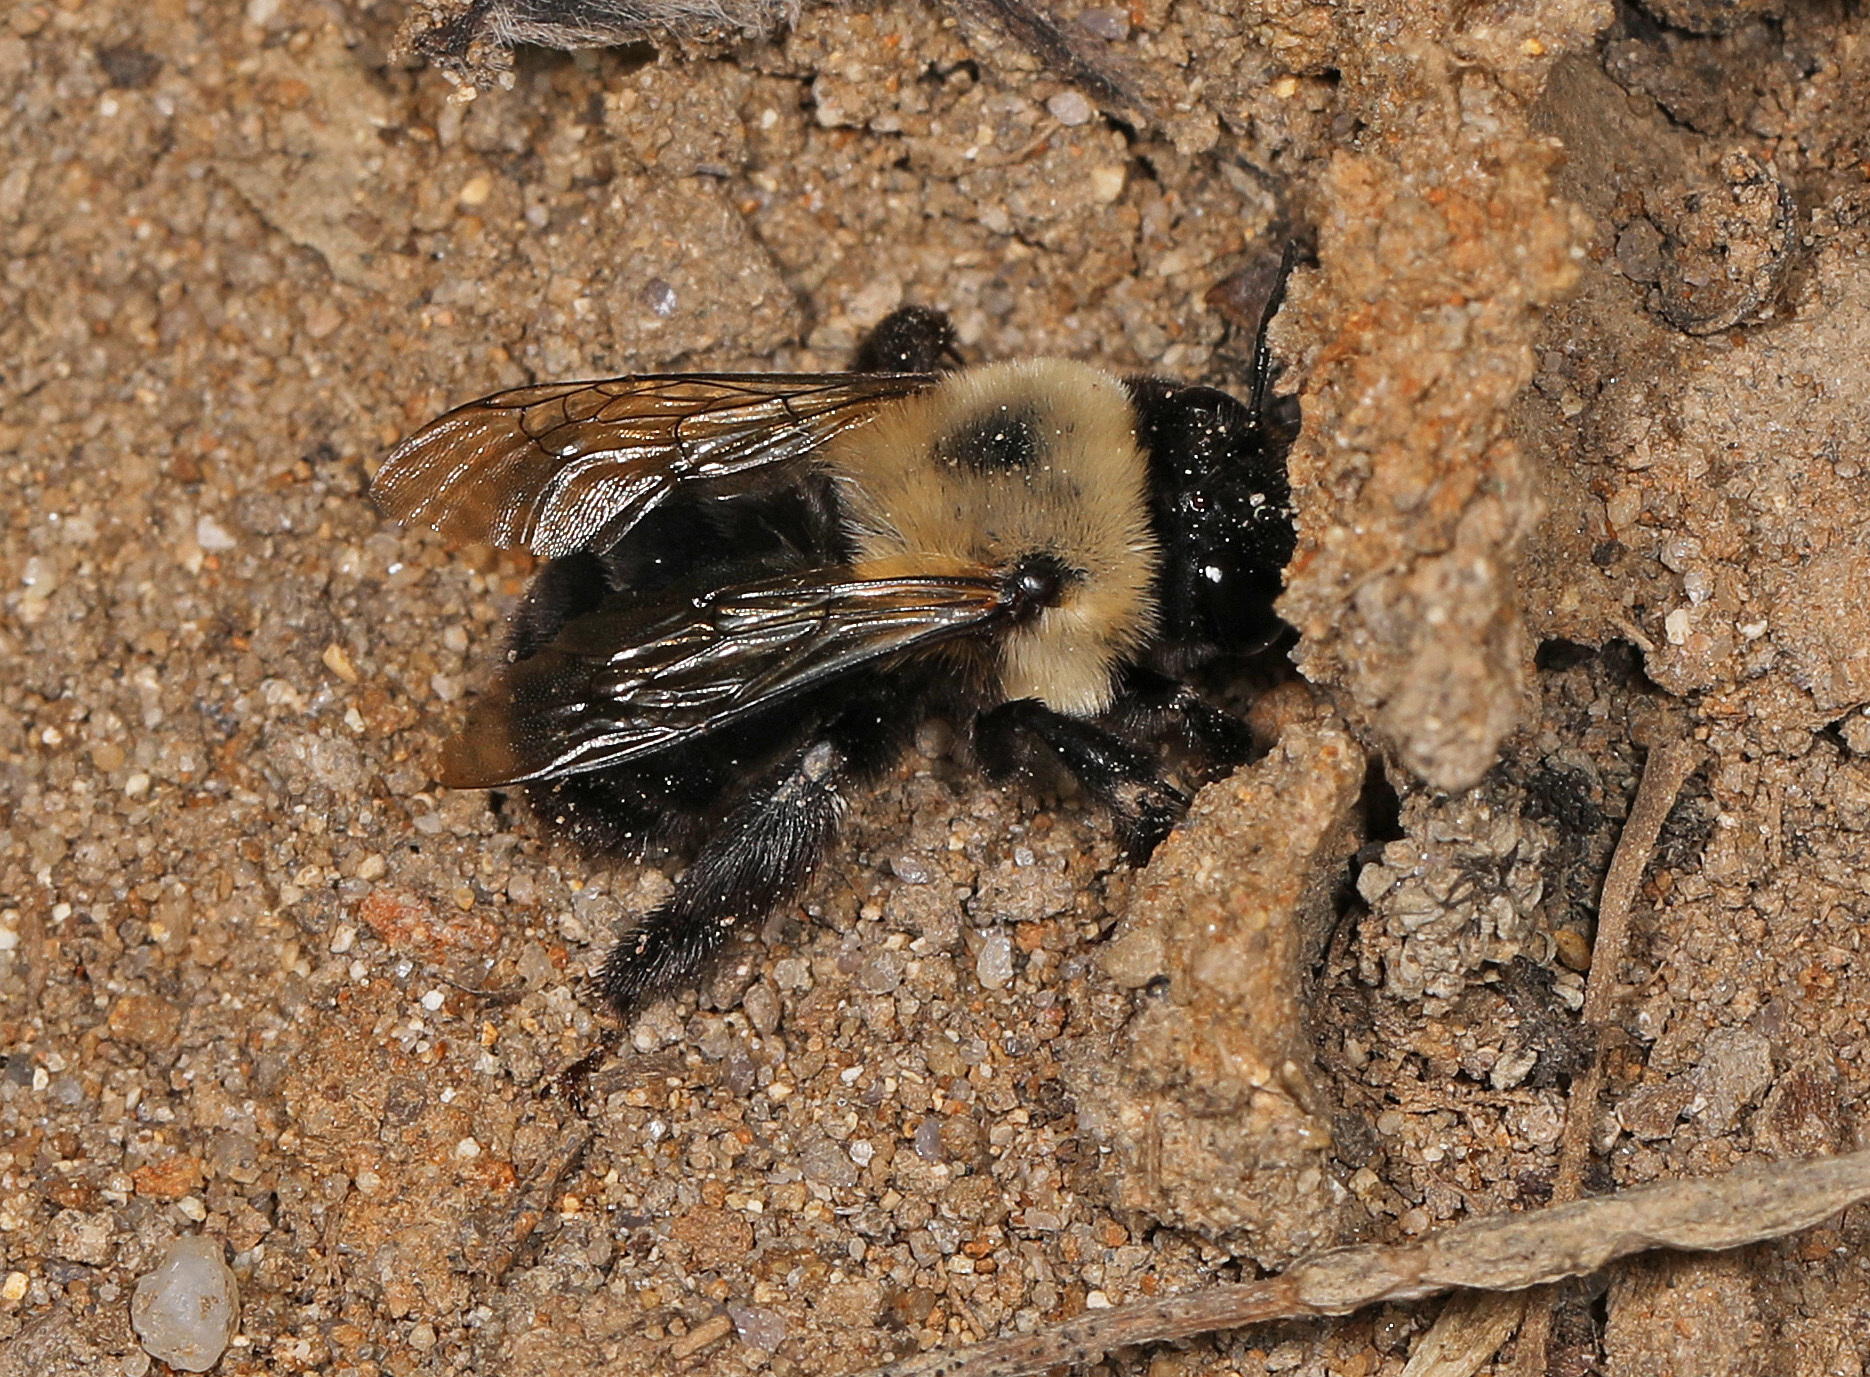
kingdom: Animalia
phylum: Arthropoda
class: Insecta
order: Hymenoptera
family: Apidae
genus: Anthophora
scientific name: Anthophora abrupta
